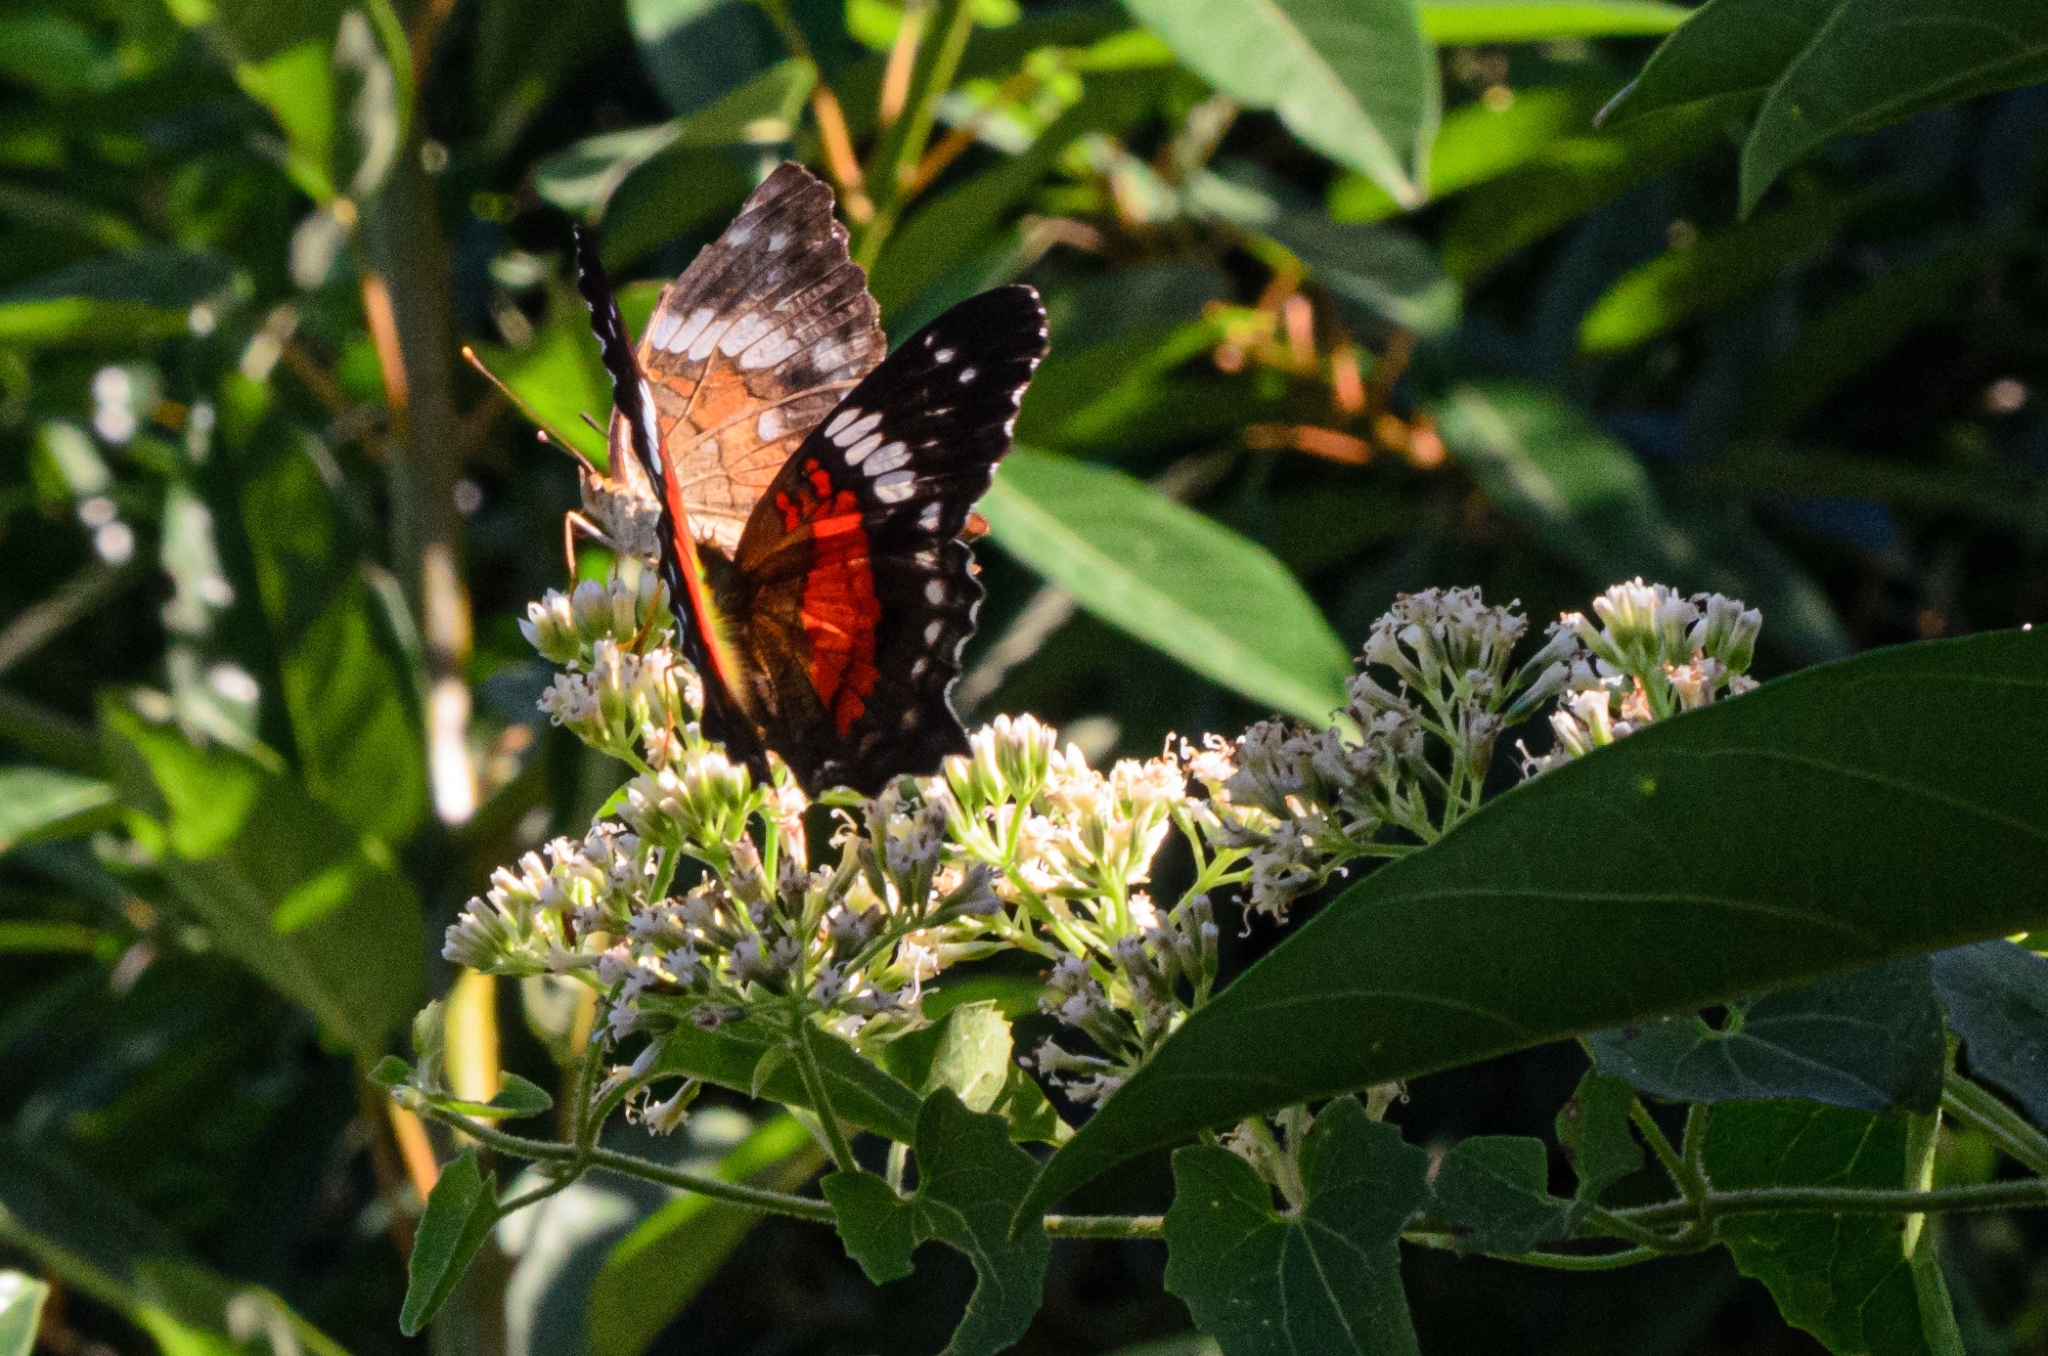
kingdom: Animalia
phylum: Arthropoda
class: Insecta
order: Lepidoptera
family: Nymphalidae
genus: Anartia
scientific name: Anartia amathea
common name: Red peacock
